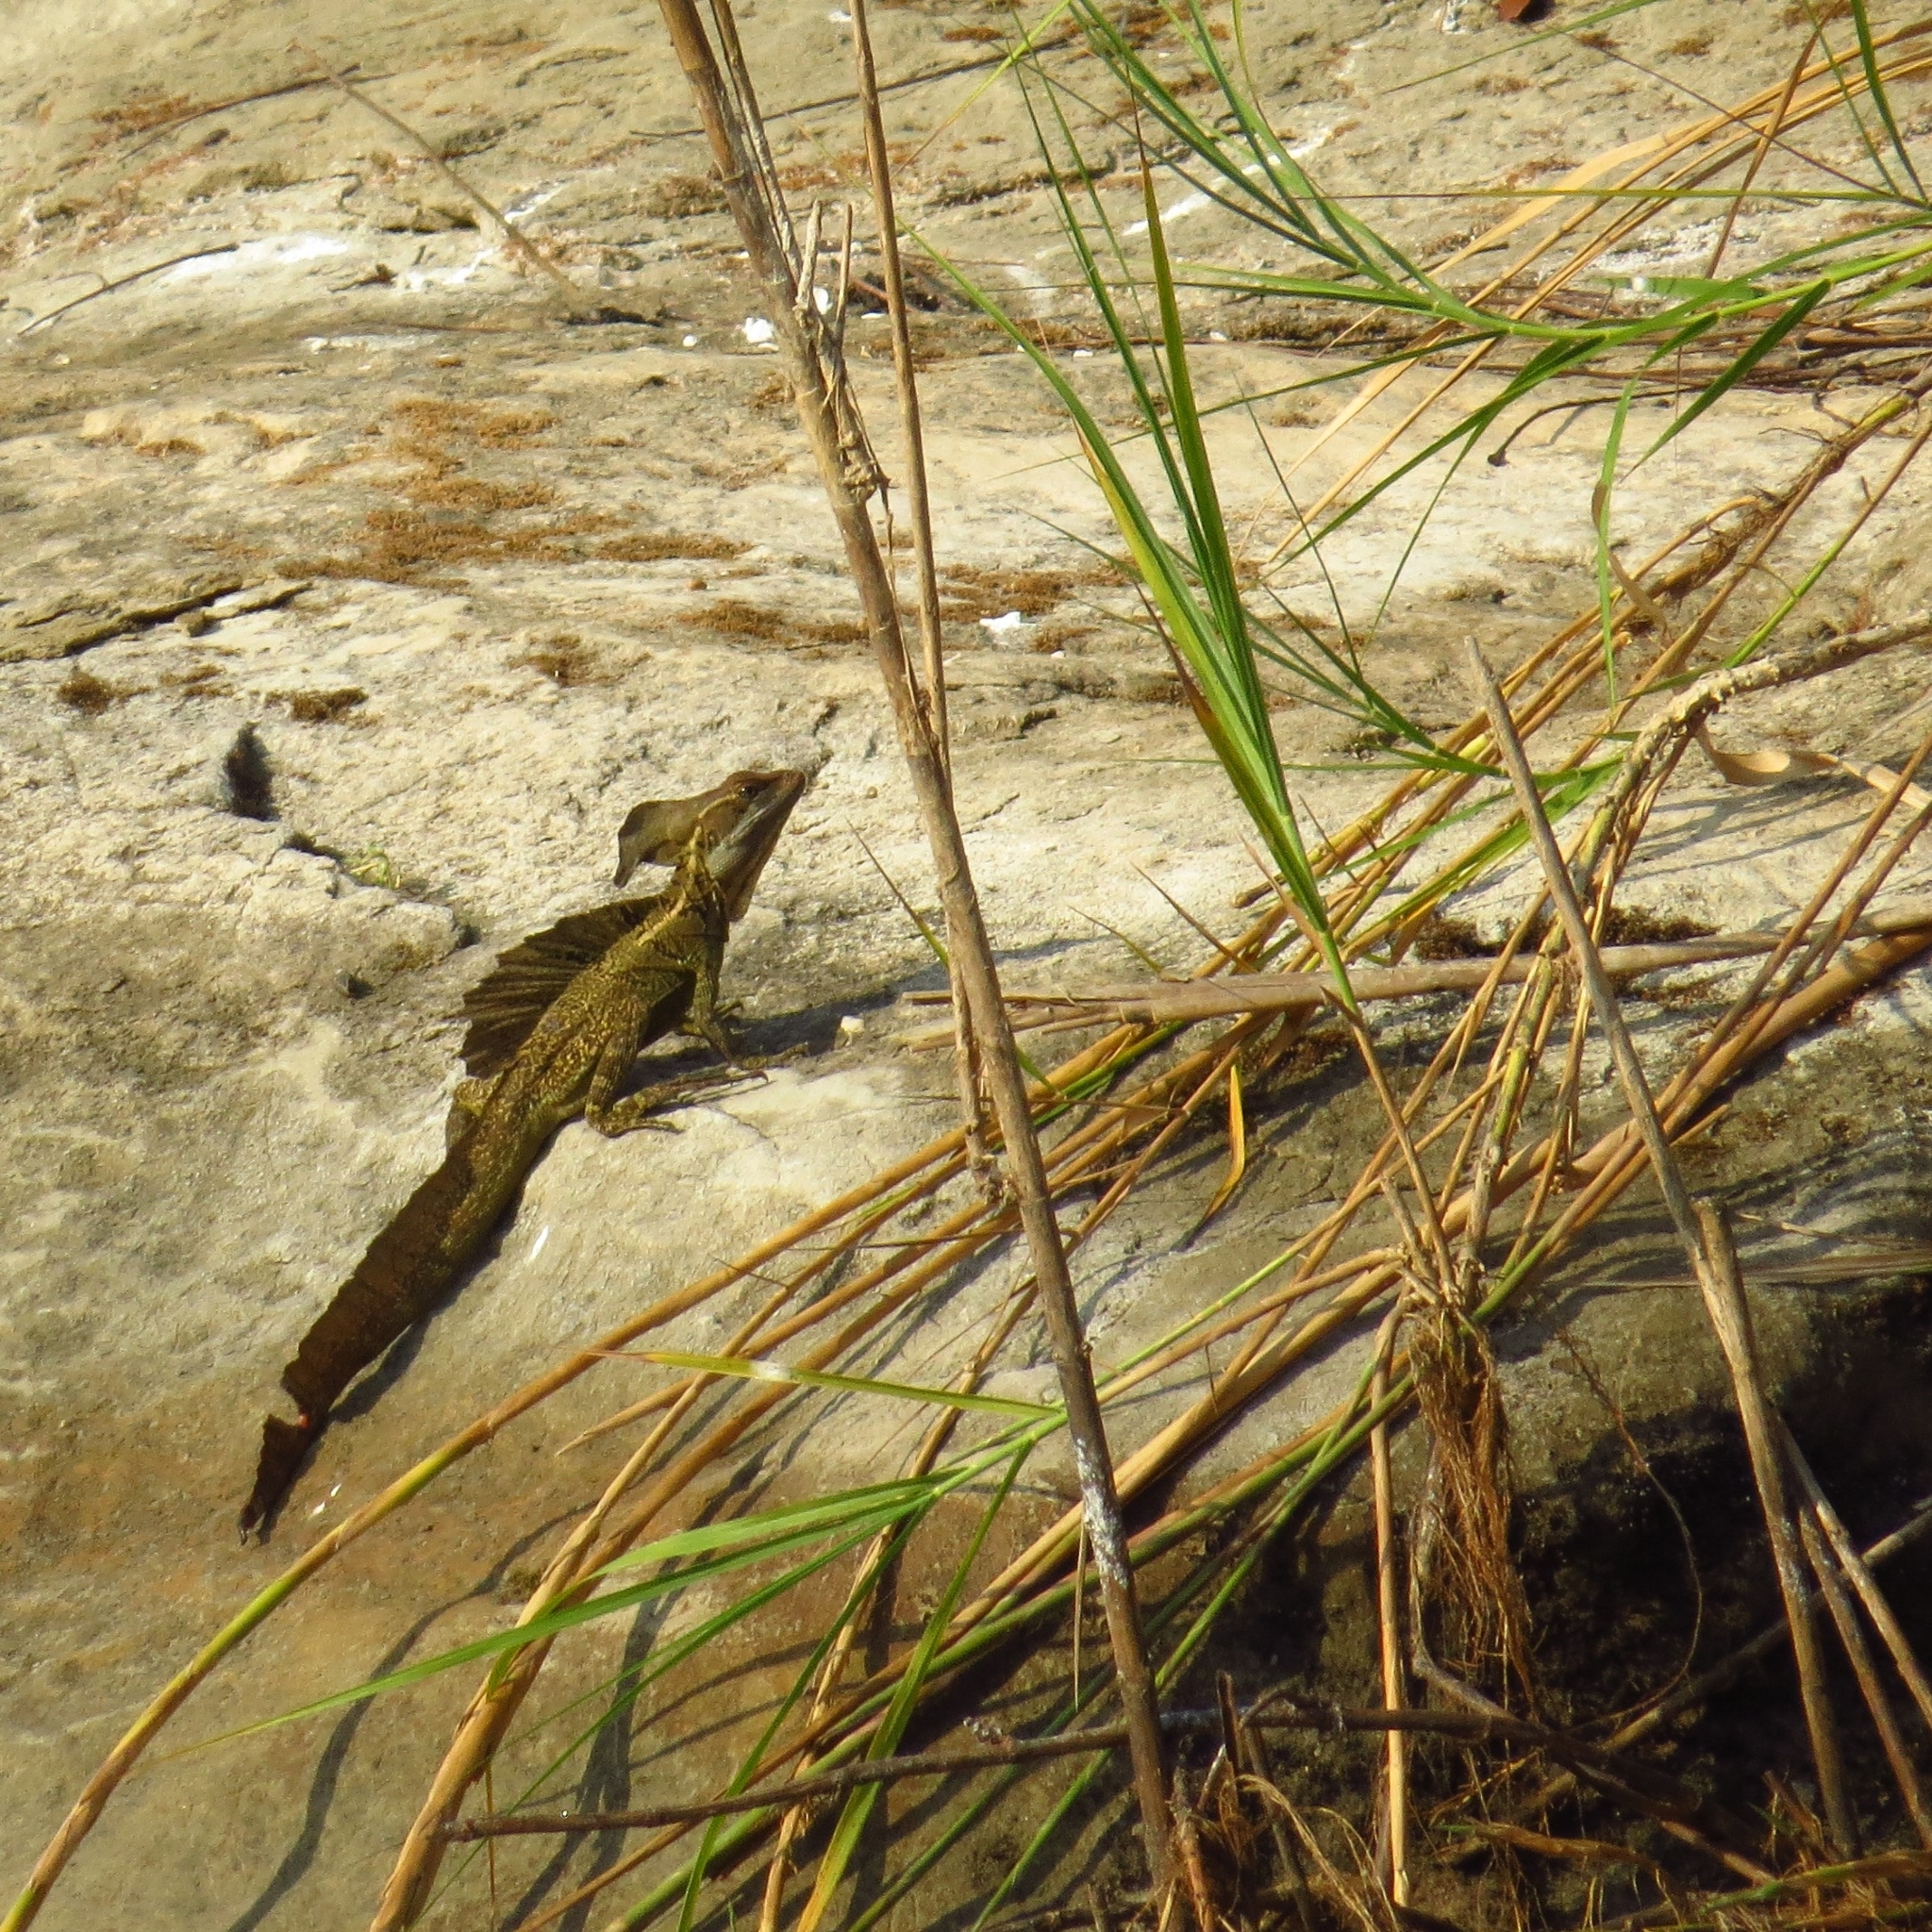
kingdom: Animalia
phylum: Chordata
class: Squamata
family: Corytophanidae
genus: Basiliscus
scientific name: Basiliscus basiliscus
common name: Common basilisk
